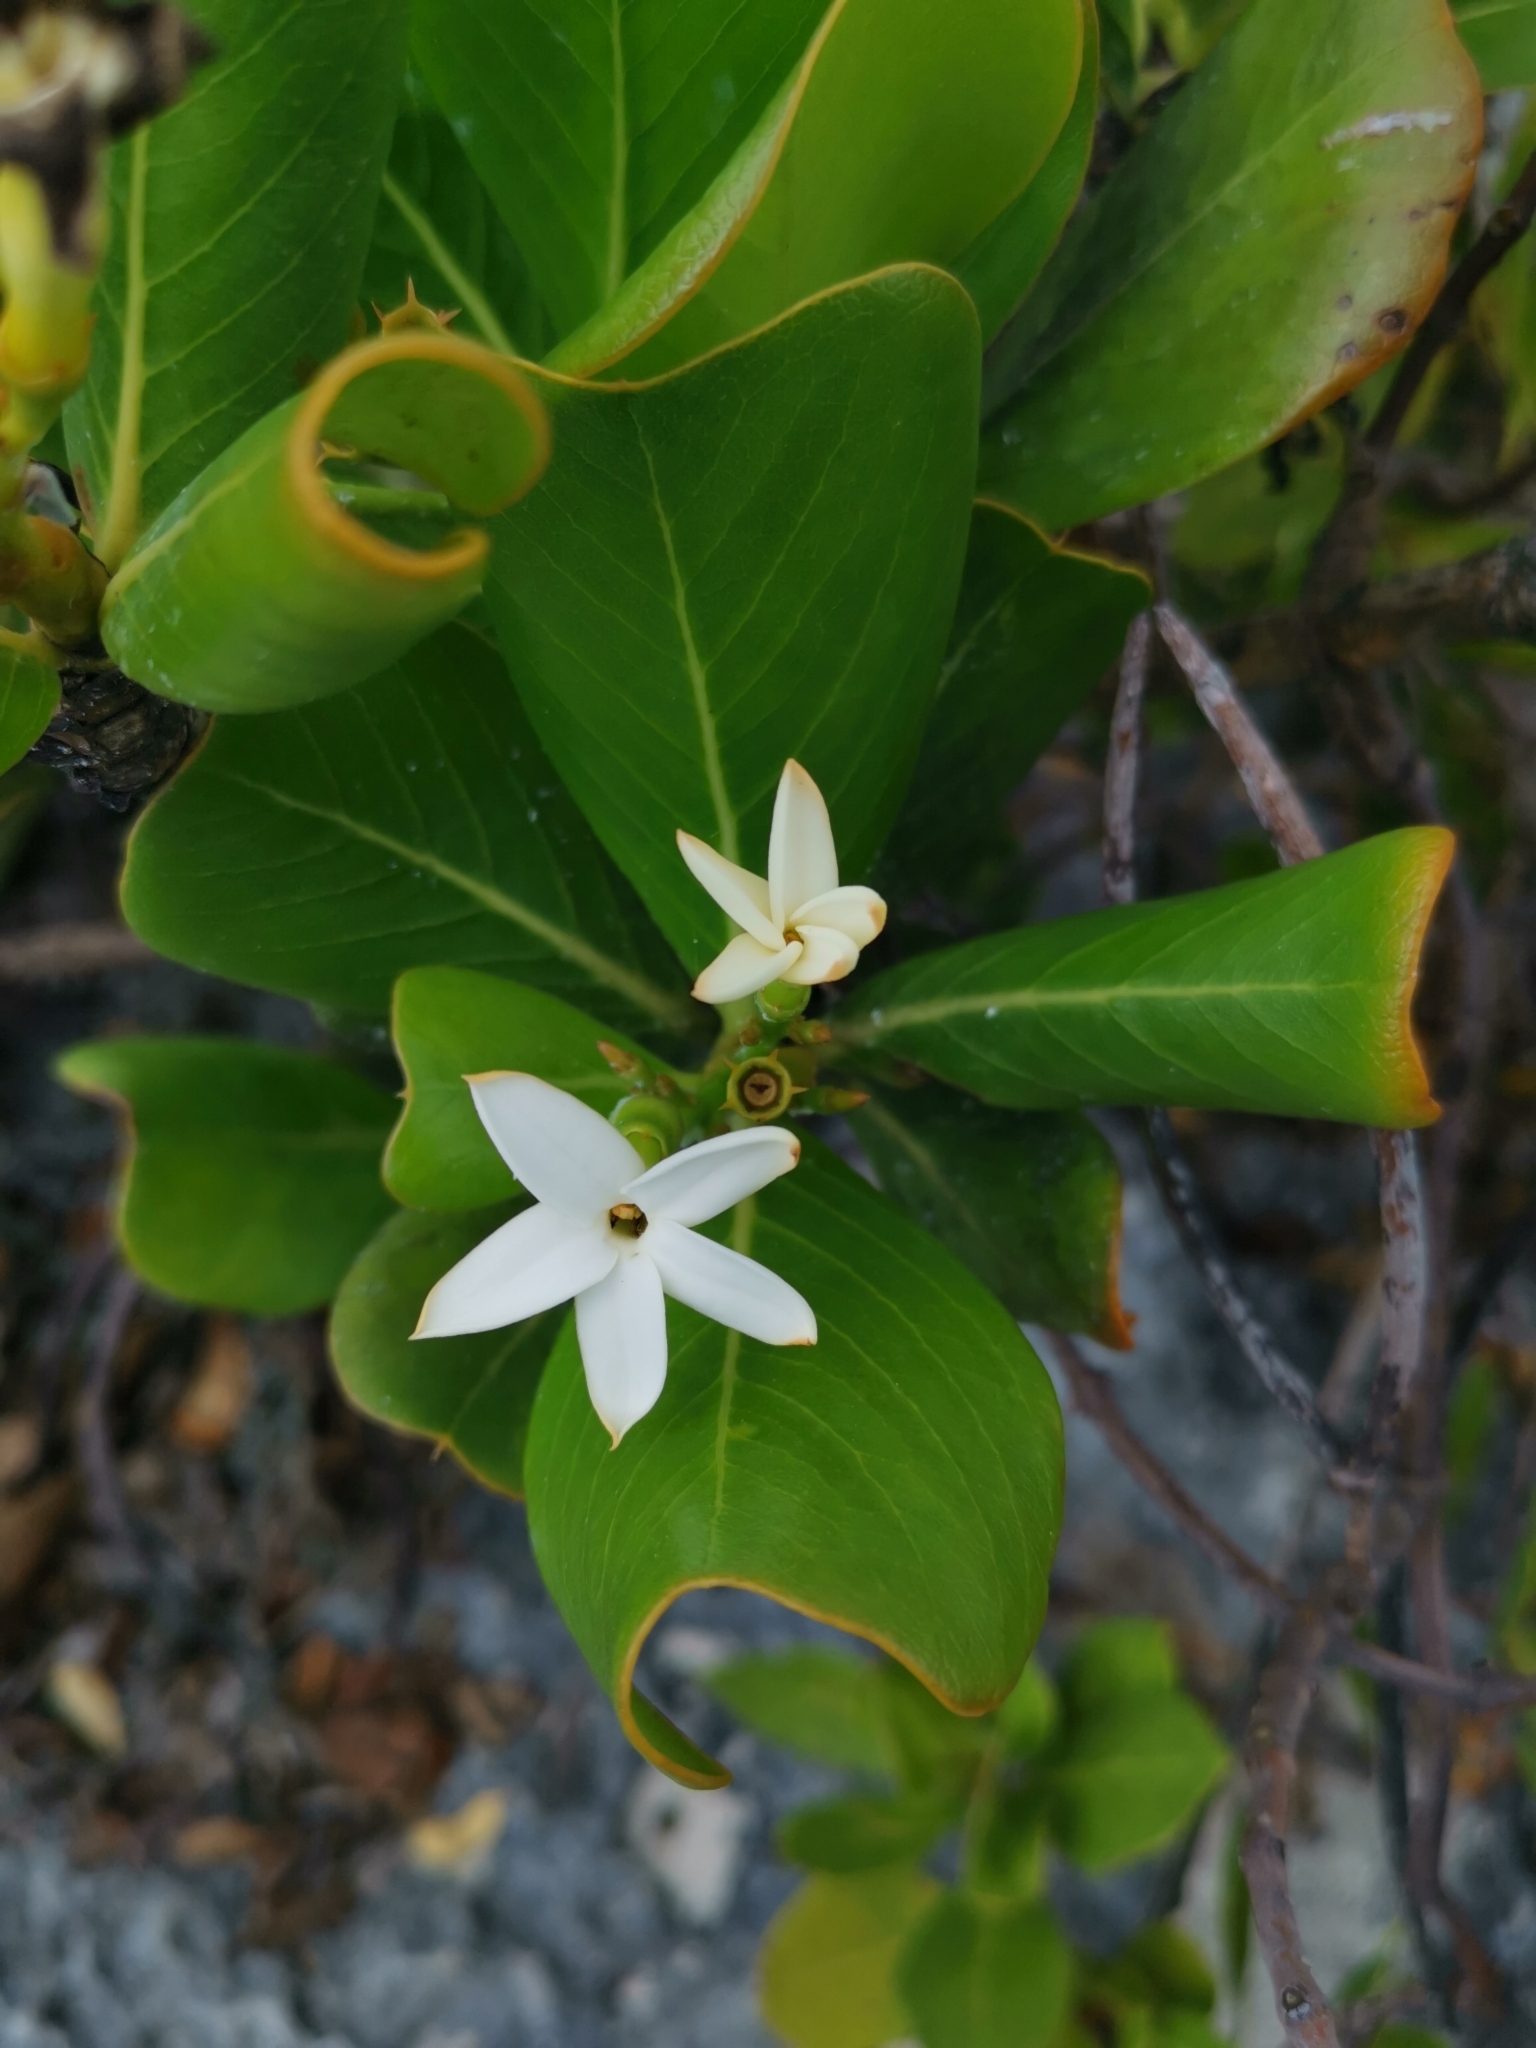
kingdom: Plantae
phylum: Tracheophyta
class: Magnoliopsida
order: Gentianales
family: Rubiaceae
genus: Casasia
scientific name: Casasia clusiifolia
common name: Seven-year apple
